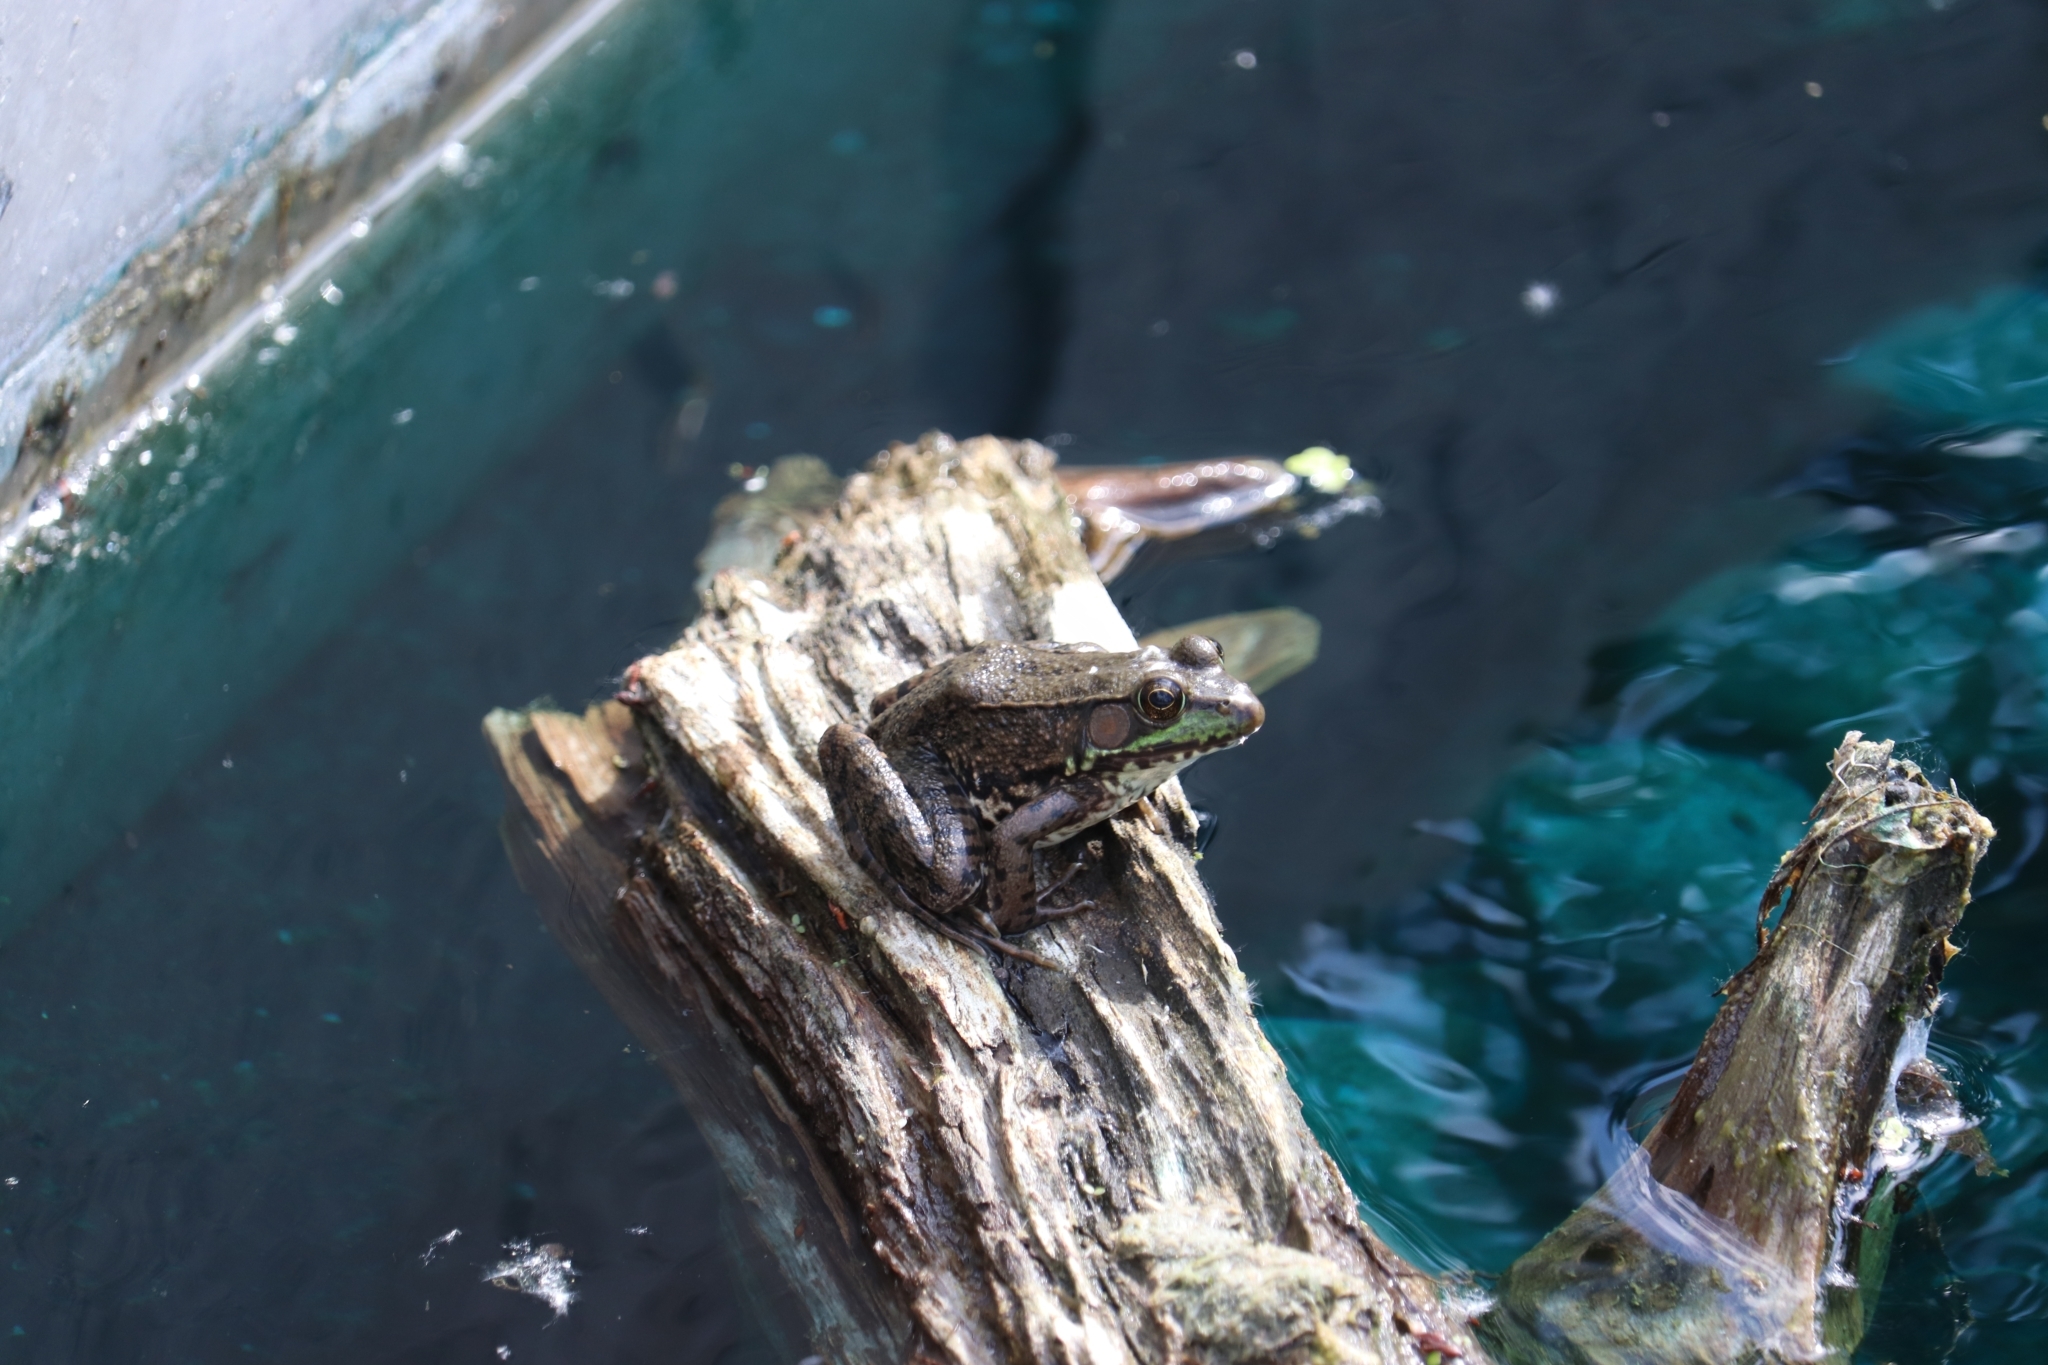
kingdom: Animalia
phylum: Chordata
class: Amphibia
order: Anura
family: Ranidae
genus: Lithobates
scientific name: Lithobates clamitans
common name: Green frog
